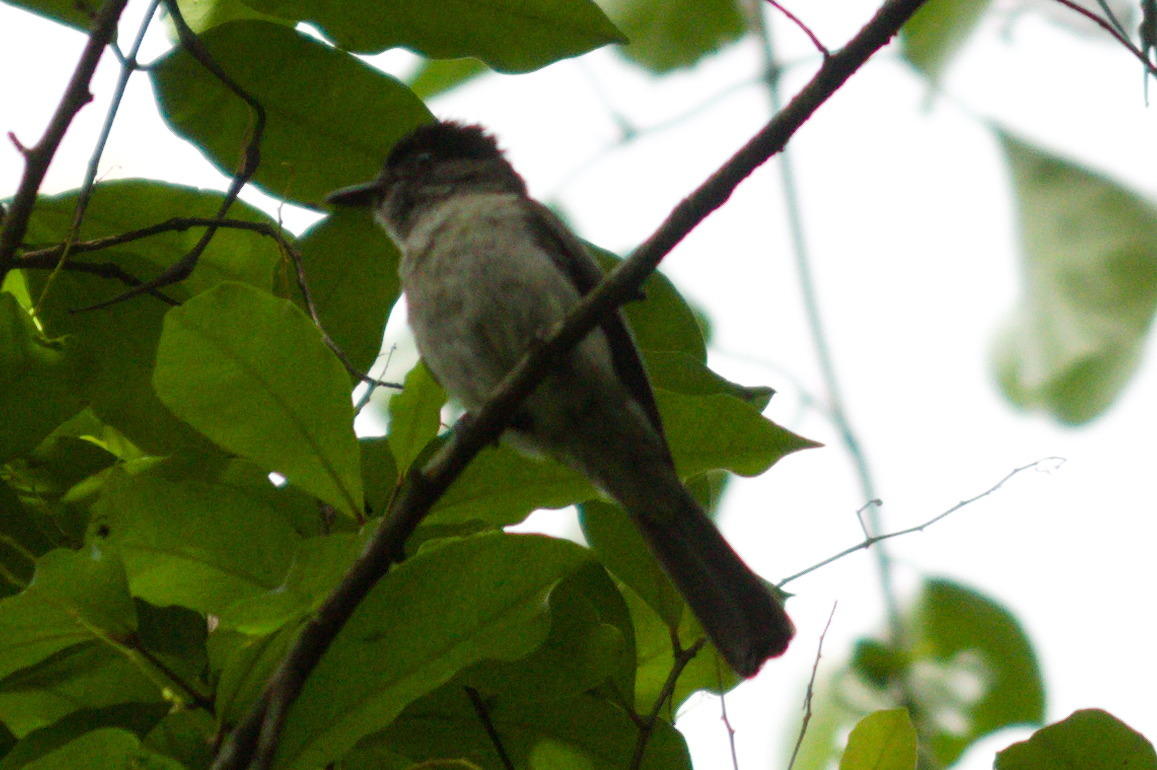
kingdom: Animalia
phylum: Chordata
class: Aves
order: Passeriformes
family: Tyrannidae
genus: Sirystes
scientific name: Sirystes sibilator
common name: Sirystes
